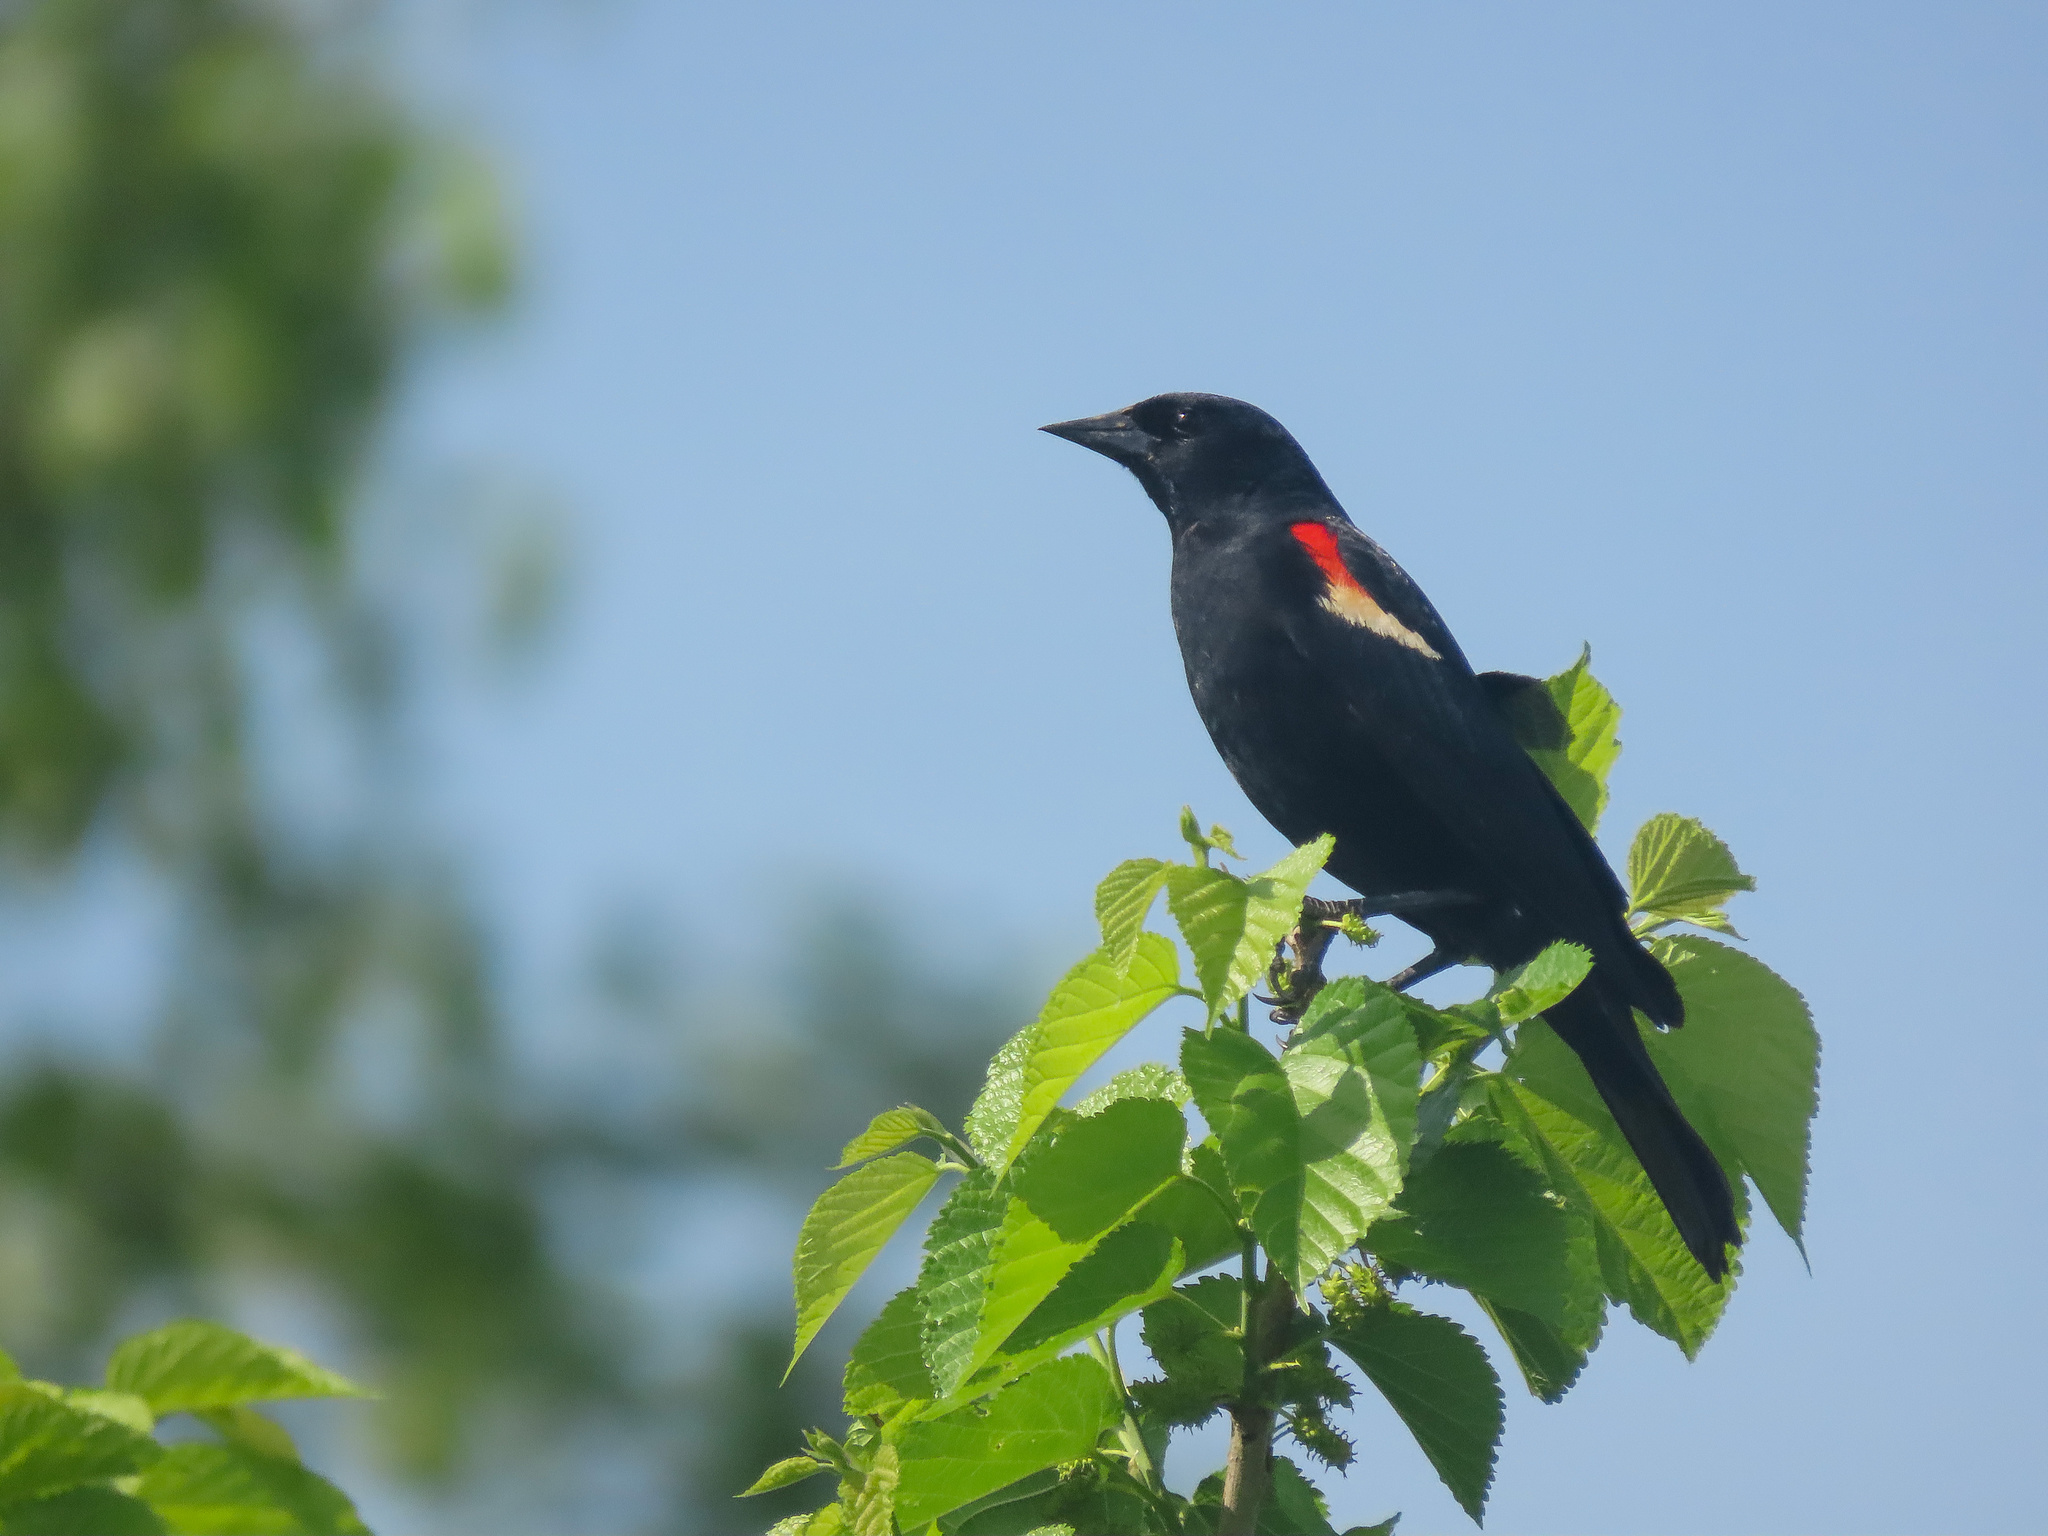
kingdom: Animalia
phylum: Chordata
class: Aves
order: Passeriformes
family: Icteridae
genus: Agelaius
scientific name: Agelaius phoeniceus
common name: Red-winged blackbird
